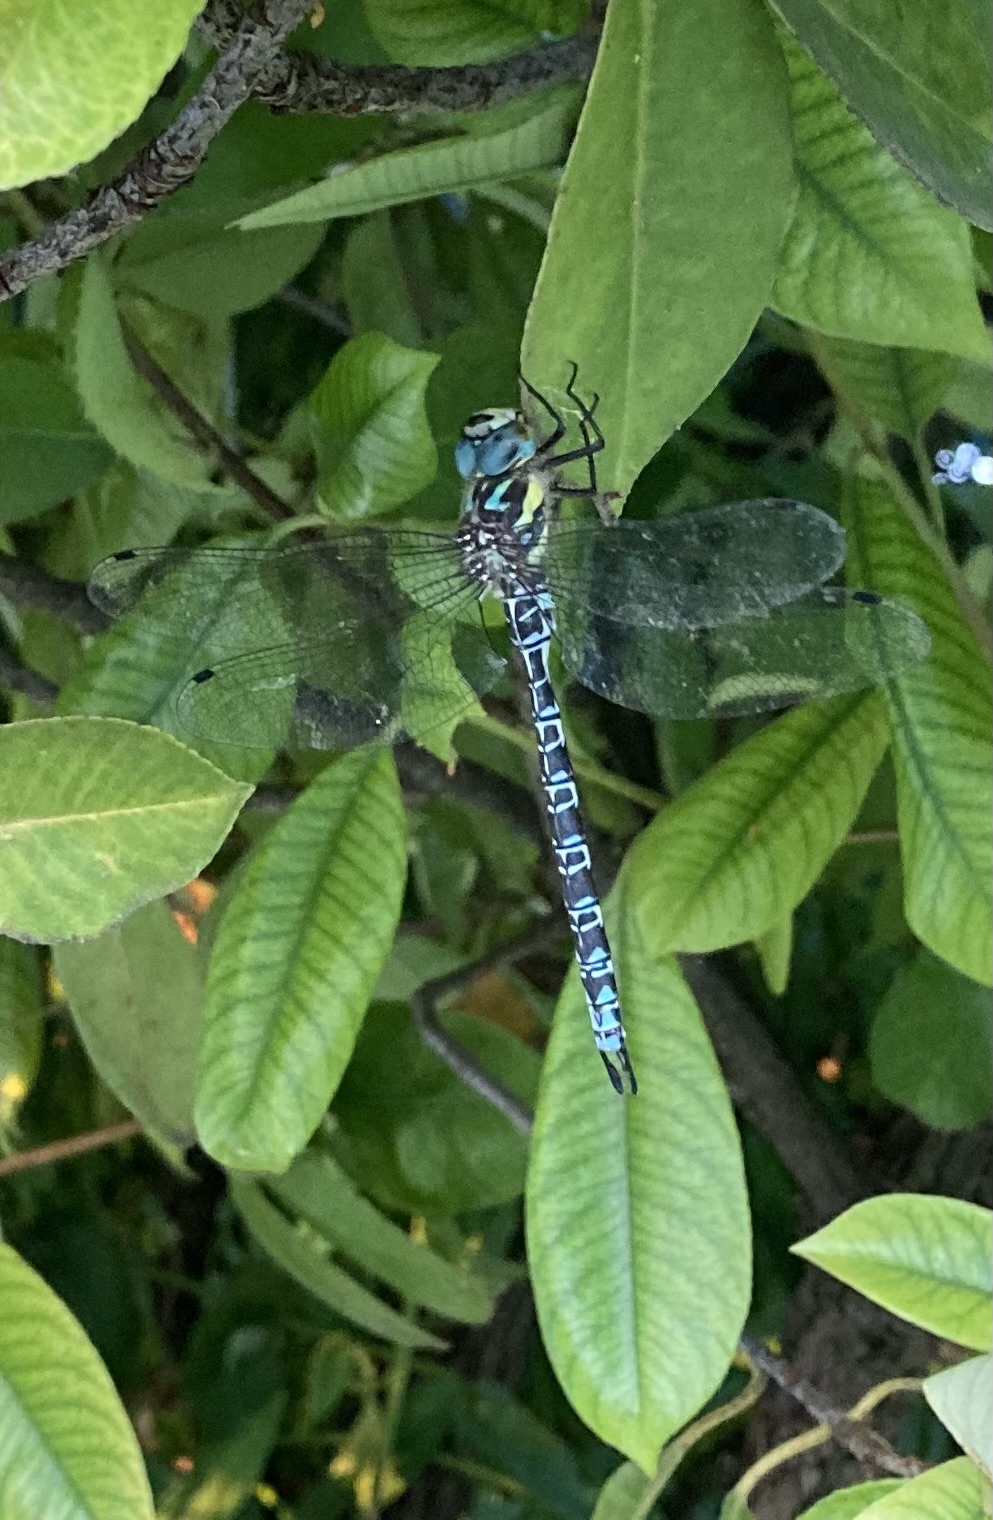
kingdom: Animalia
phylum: Arthropoda
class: Insecta
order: Odonata
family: Aeshnidae
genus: Caliaeschna
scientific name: Caliaeschna microstigma
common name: Eastern spectre
